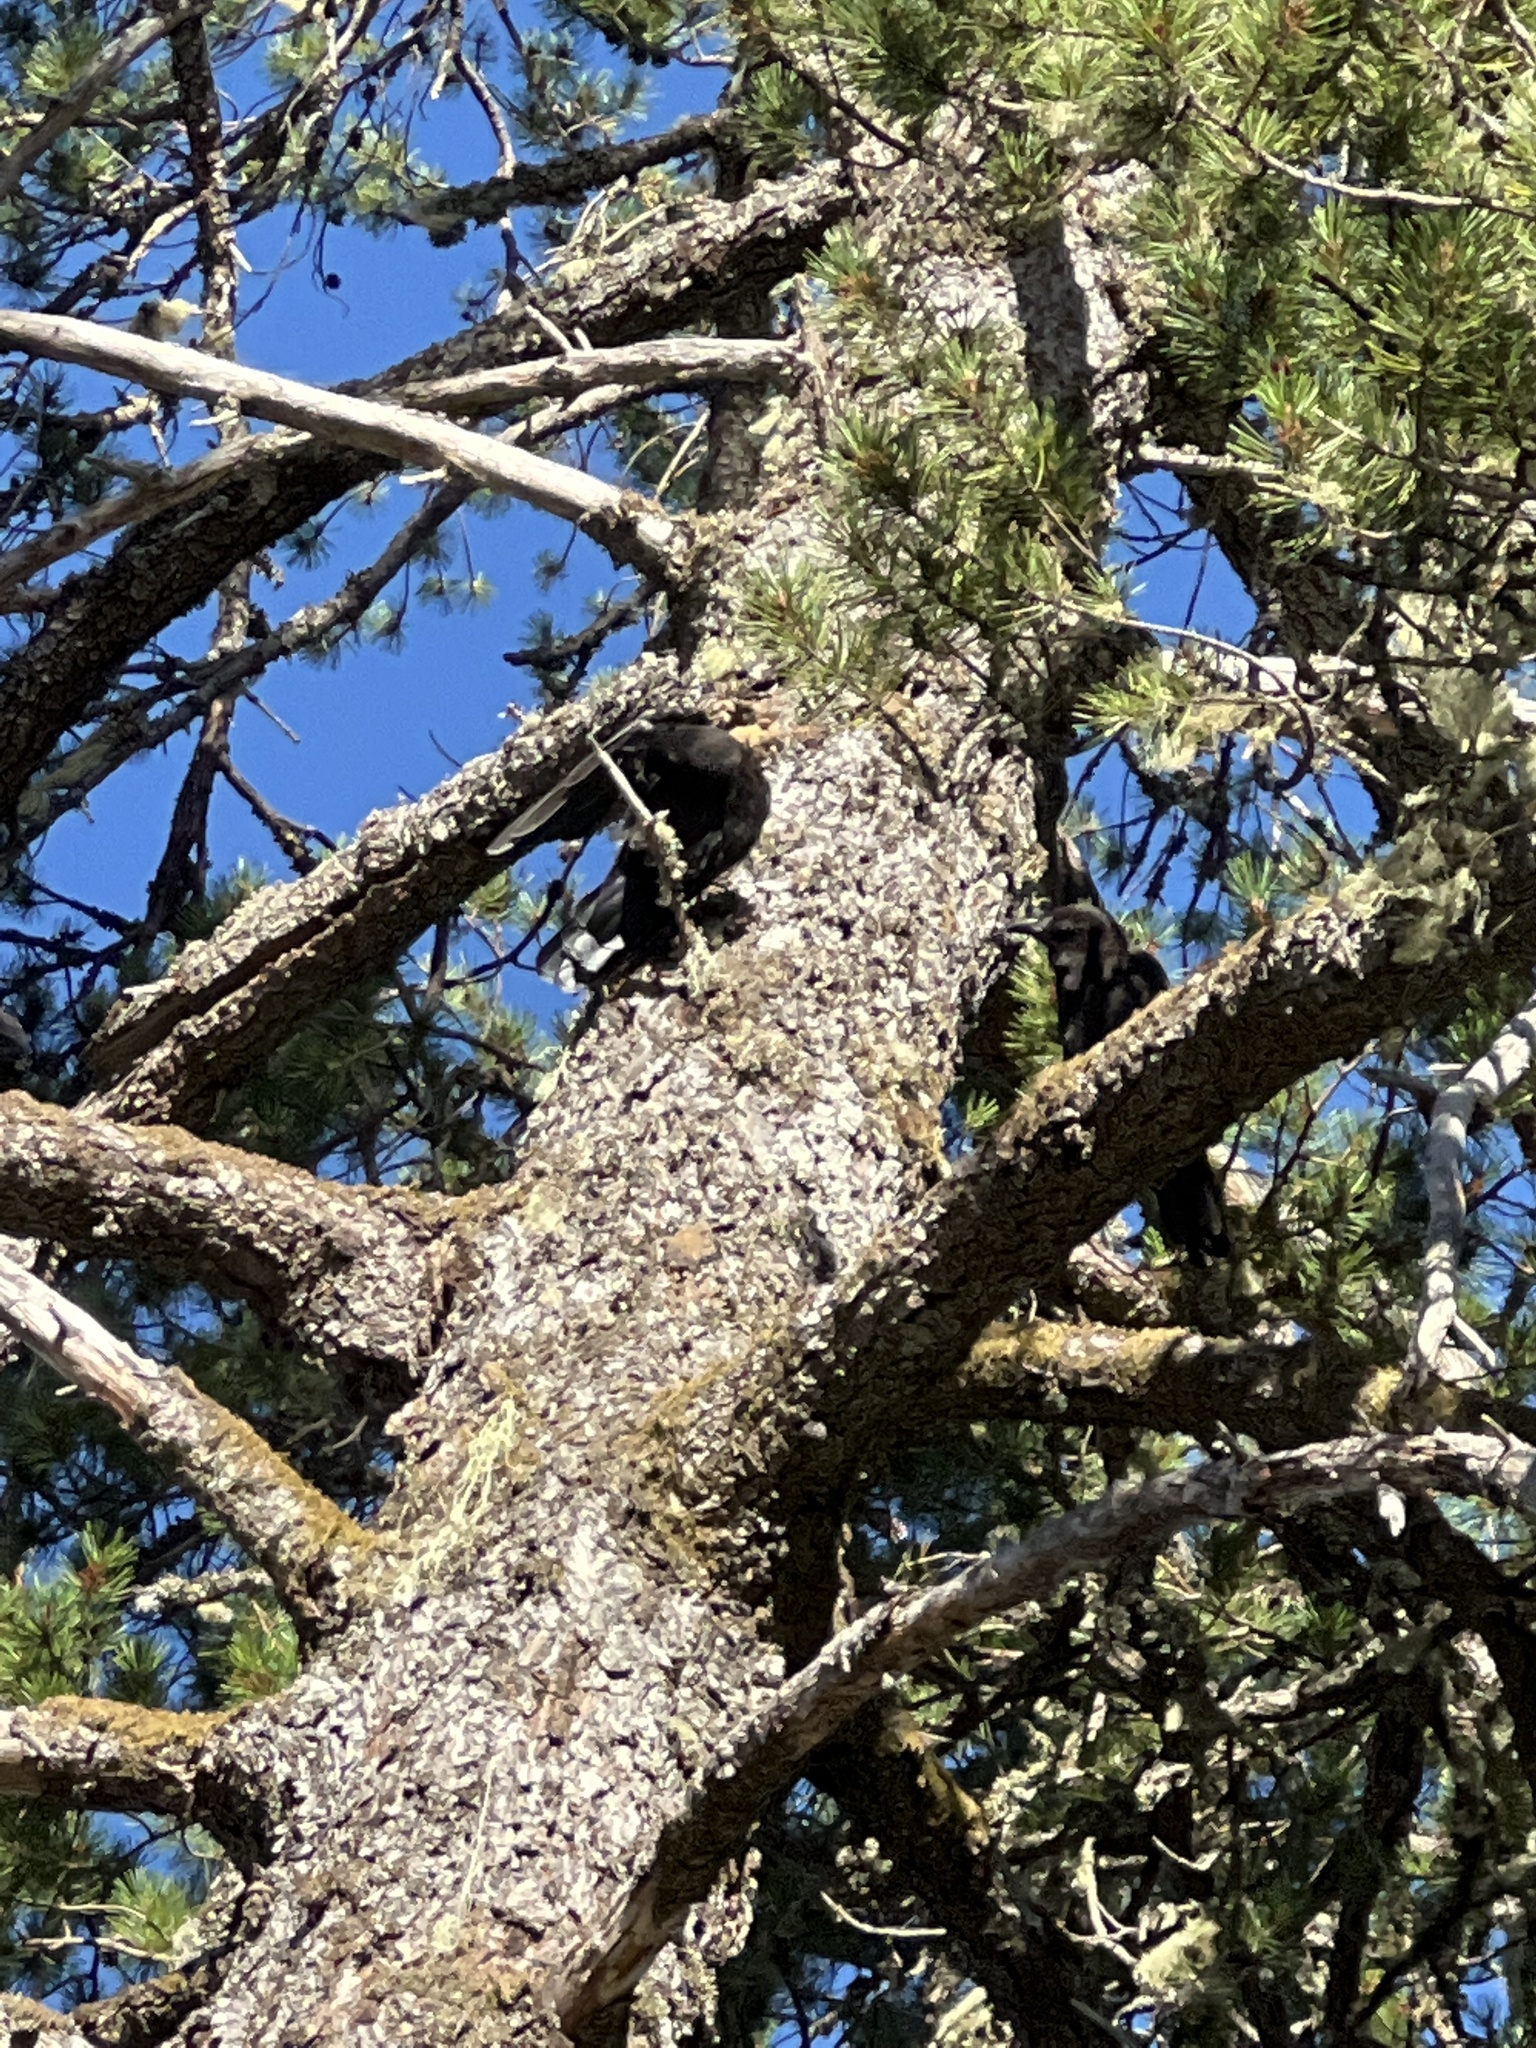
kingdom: Animalia
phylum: Chordata
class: Aves
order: Passeriformes
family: Corvidae
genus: Corvus
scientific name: Corvus brachyrhynchos
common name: American crow
